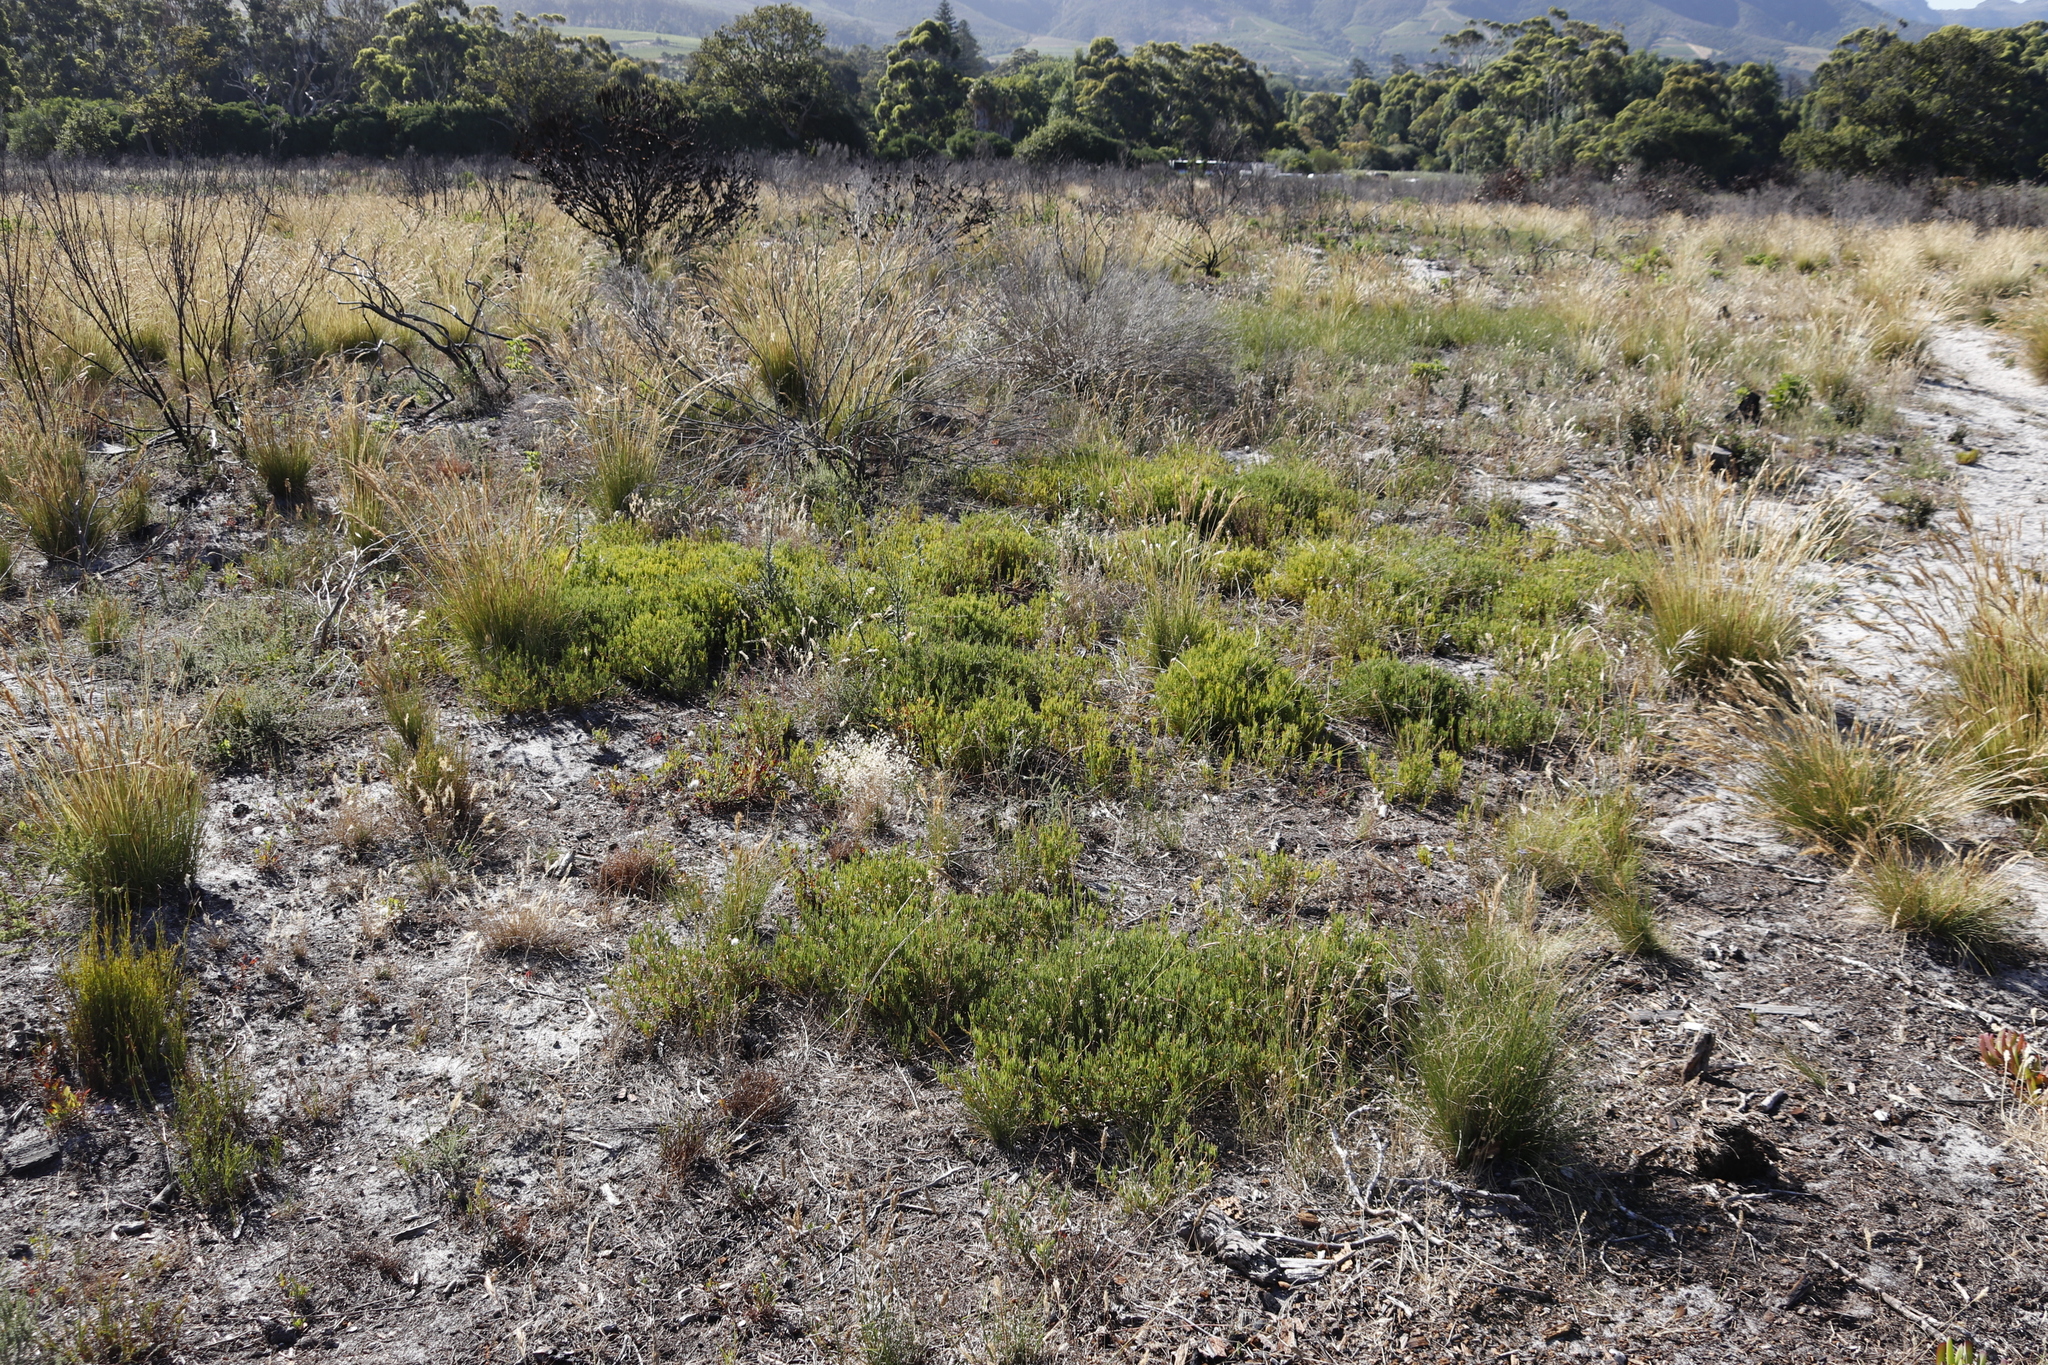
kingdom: Plantae
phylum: Tracheophyta
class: Magnoliopsida
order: Caryophyllales
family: Aizoaceae
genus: Acrosanthes
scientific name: Acrosanthes teretifolia
